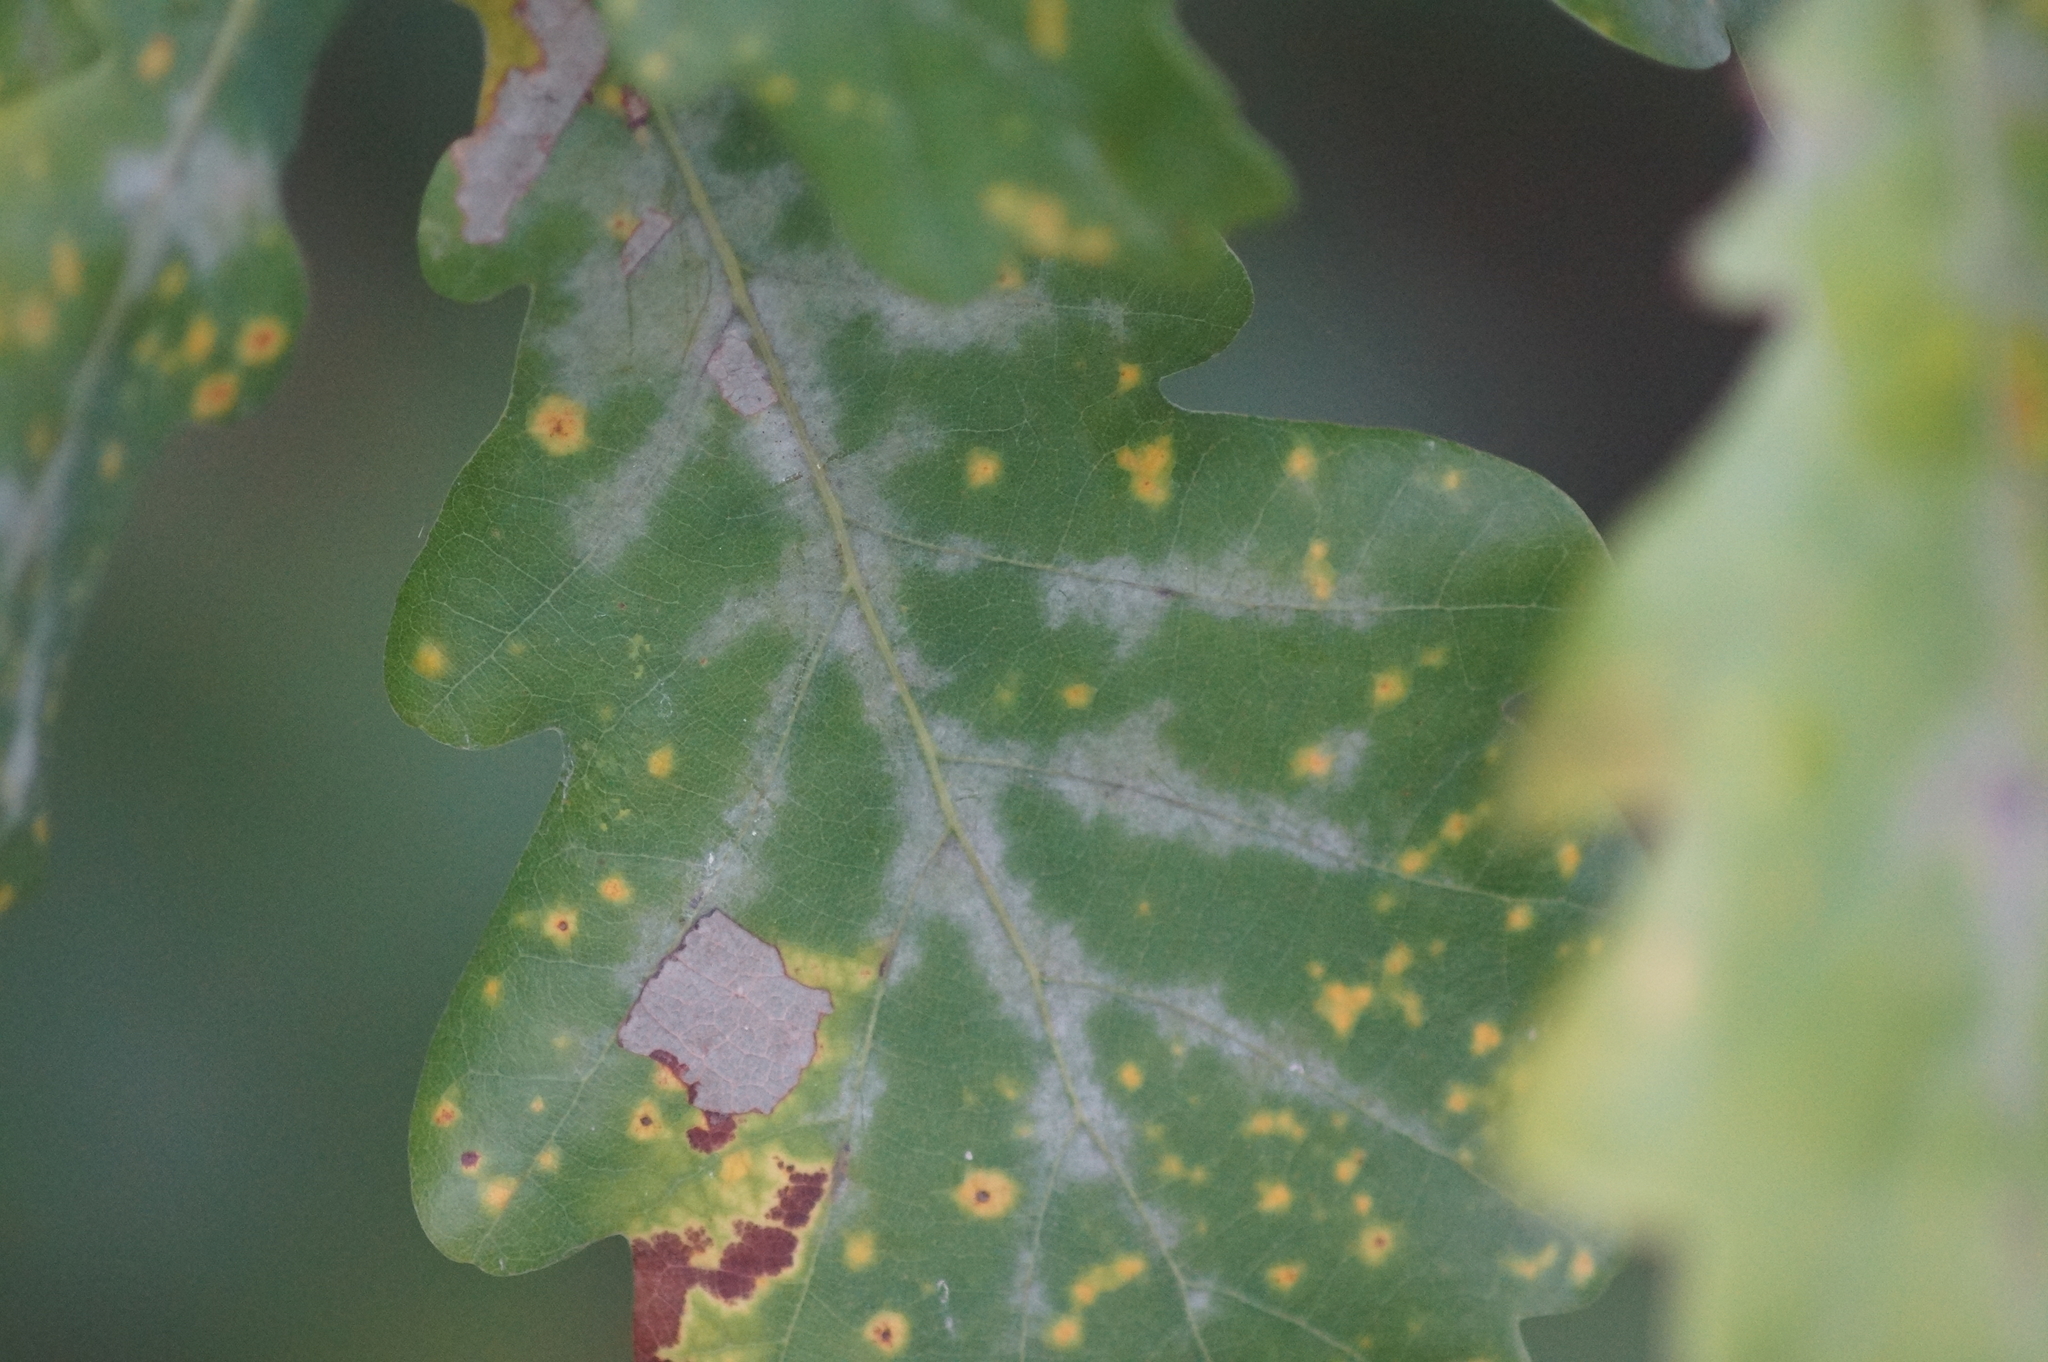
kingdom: Fungi
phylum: Ascomycota
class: Leotiomycetes
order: Helotiales
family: Erysiphaceae
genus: Erysiphe
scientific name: Erysiphe alphitoides
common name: Oak mildew
